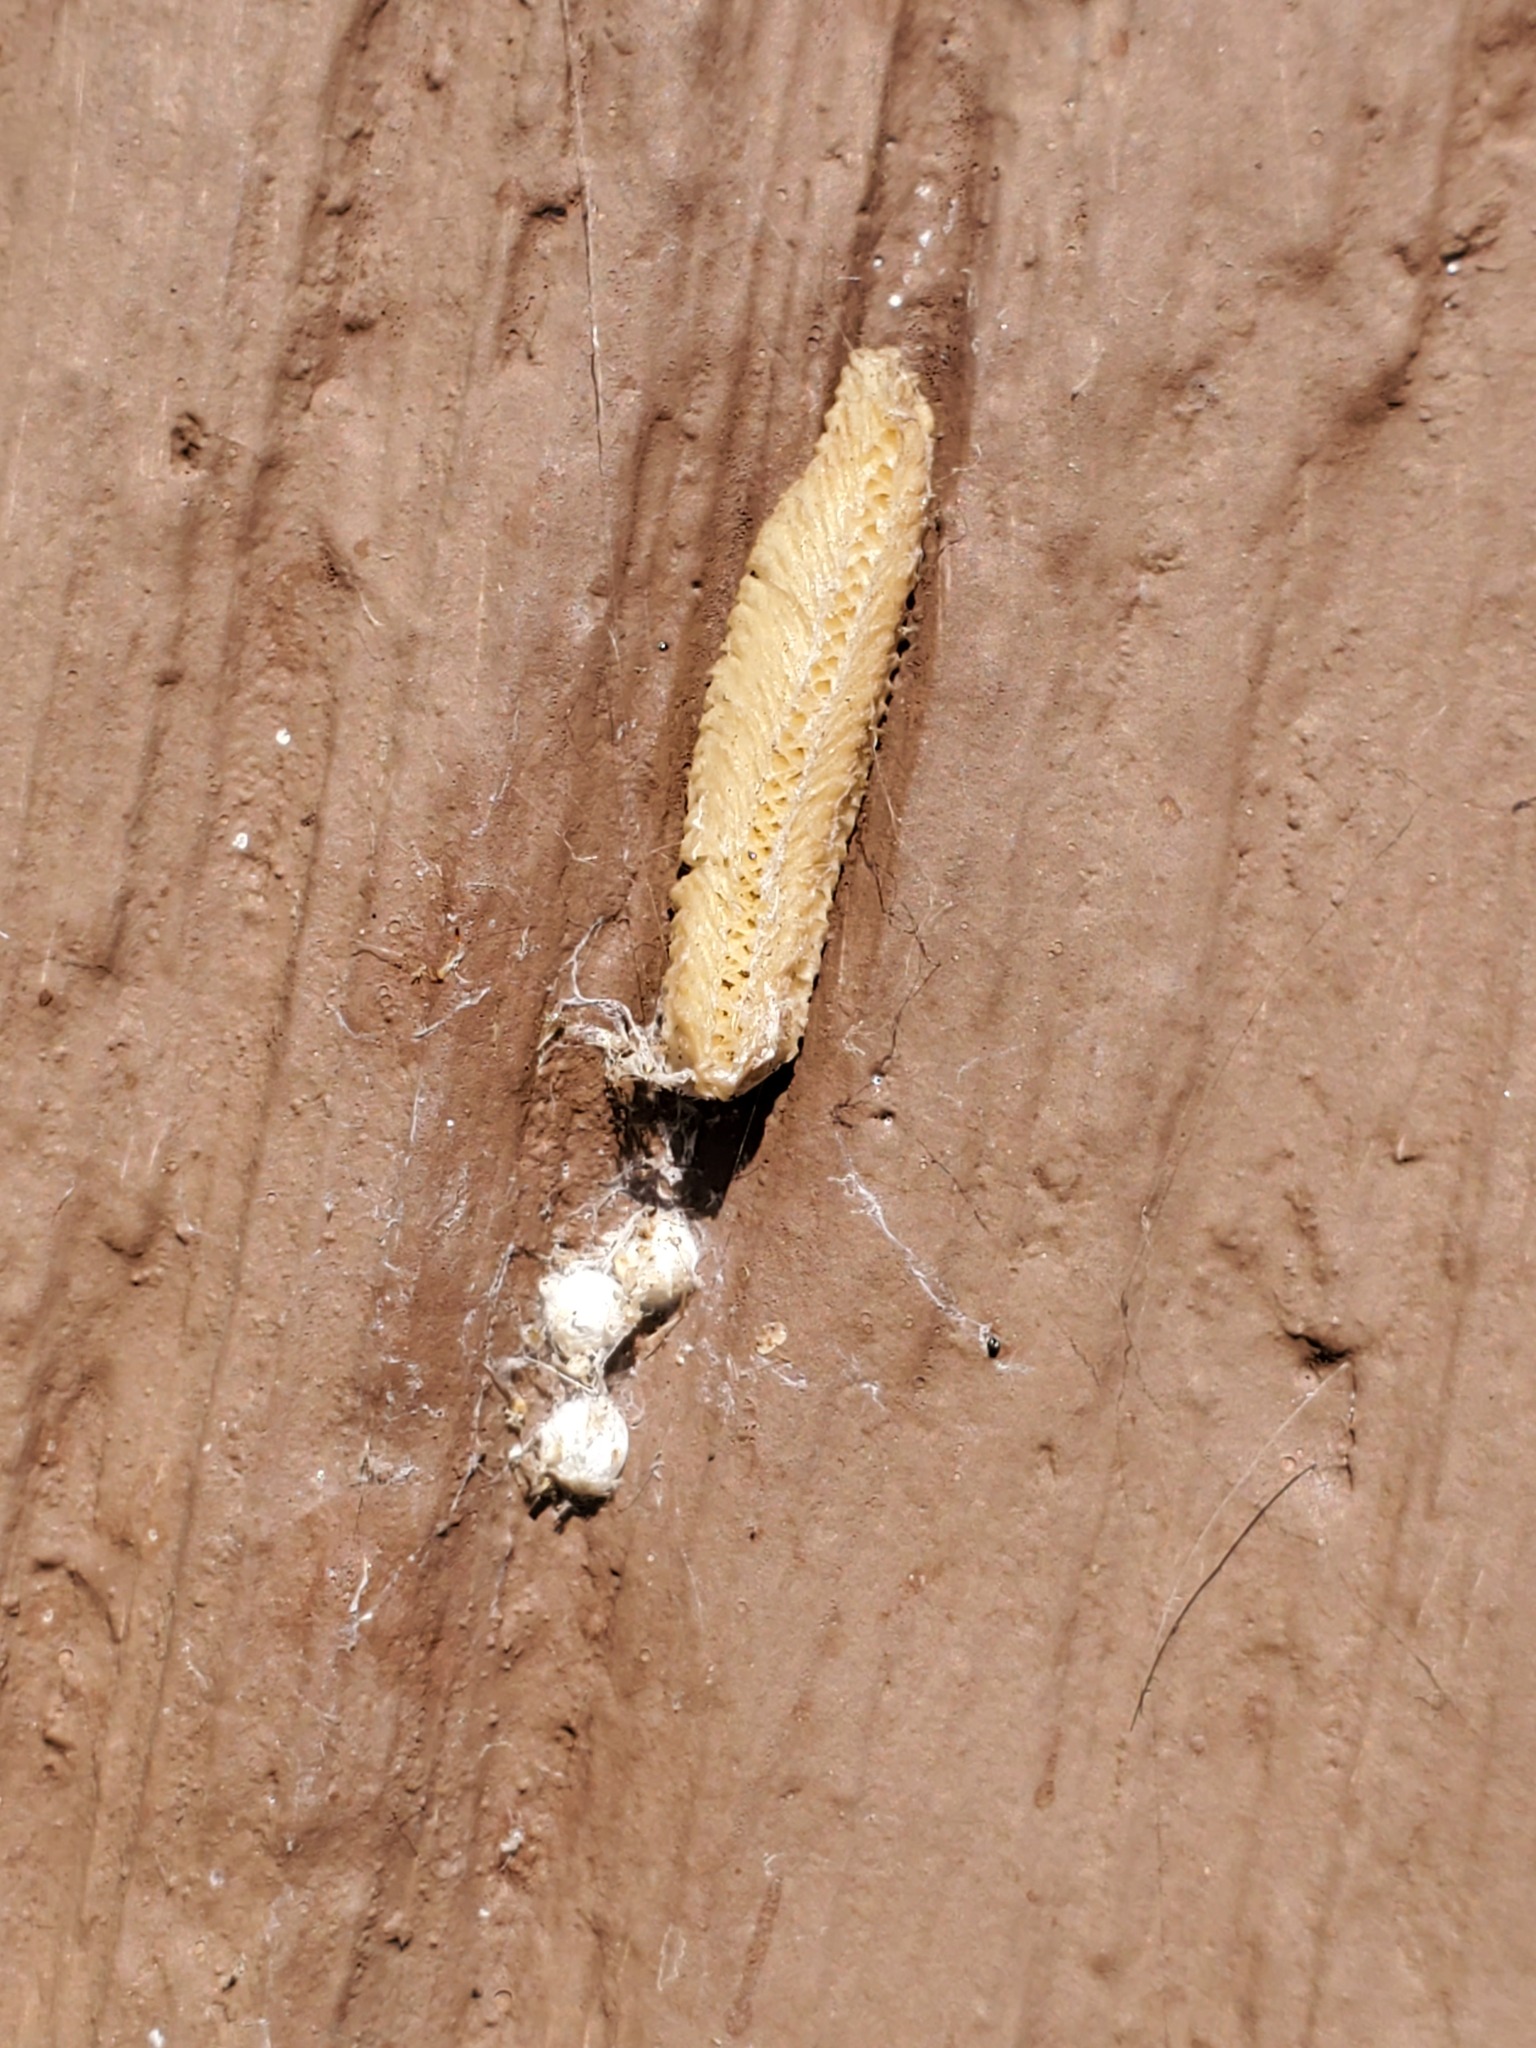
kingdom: Animalia
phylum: Arthropoda
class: Insecta
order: Mantodea
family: Eremiaphilidae
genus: Iris
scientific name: Iris oratoria
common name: Mediterranean mantis
